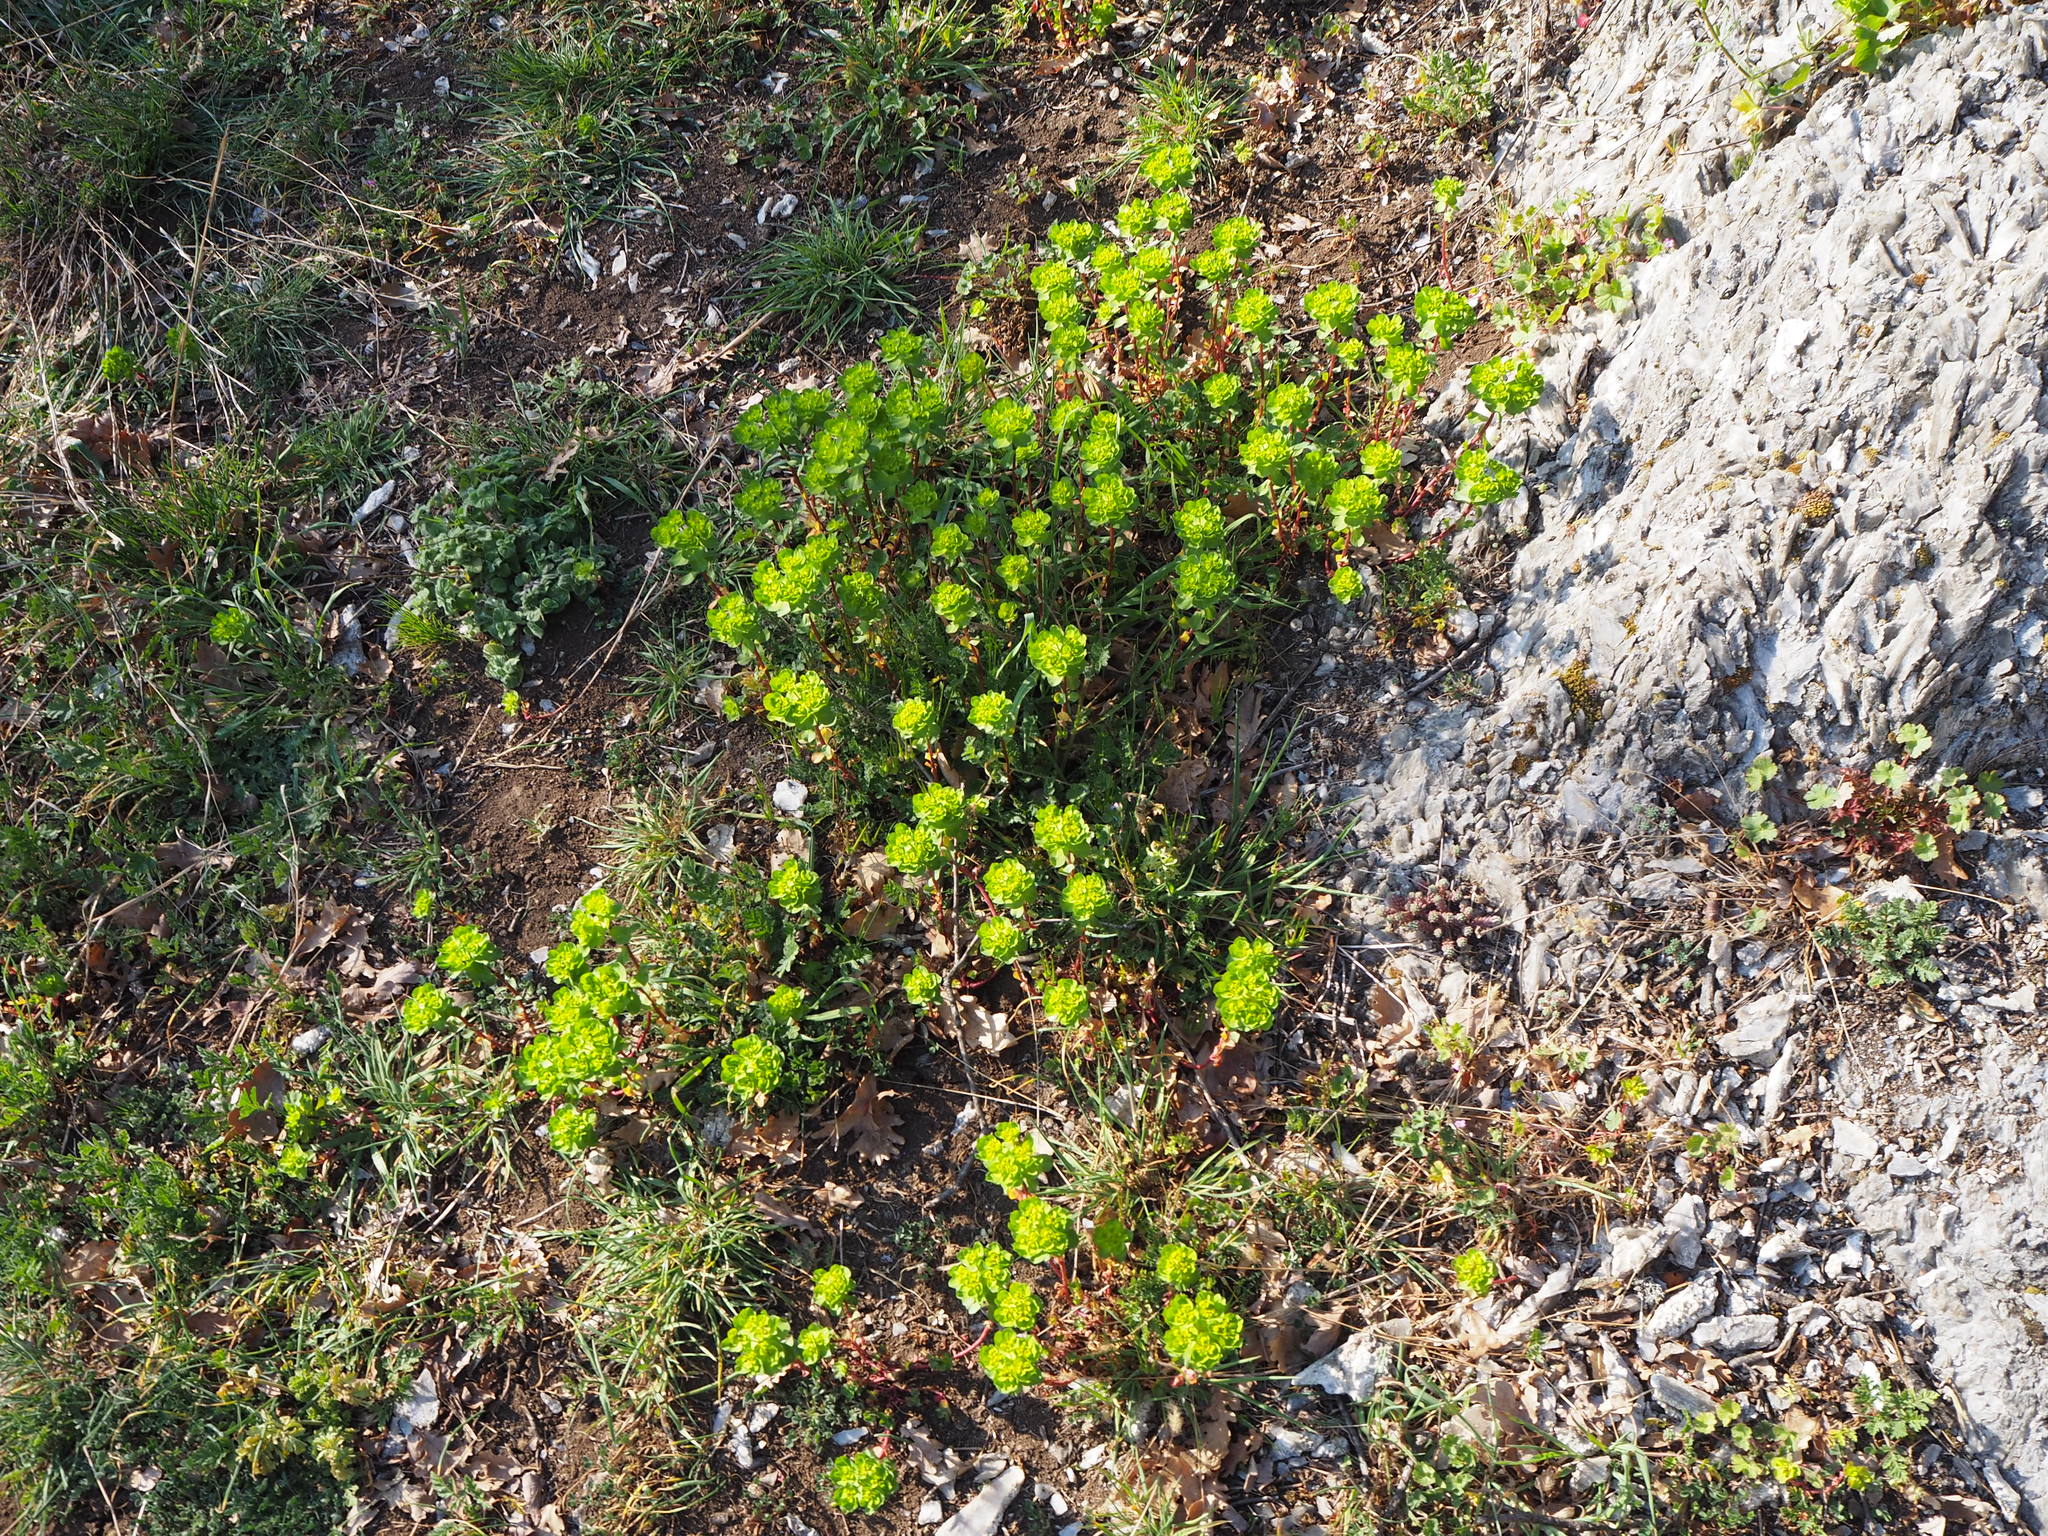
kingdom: Plantae
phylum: Tracheophyta
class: Magnoliopsida
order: Malpighiales
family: Euphorbiaceae
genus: Euphorbia
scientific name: Euphorbia helioscopia
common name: Sun spurge
